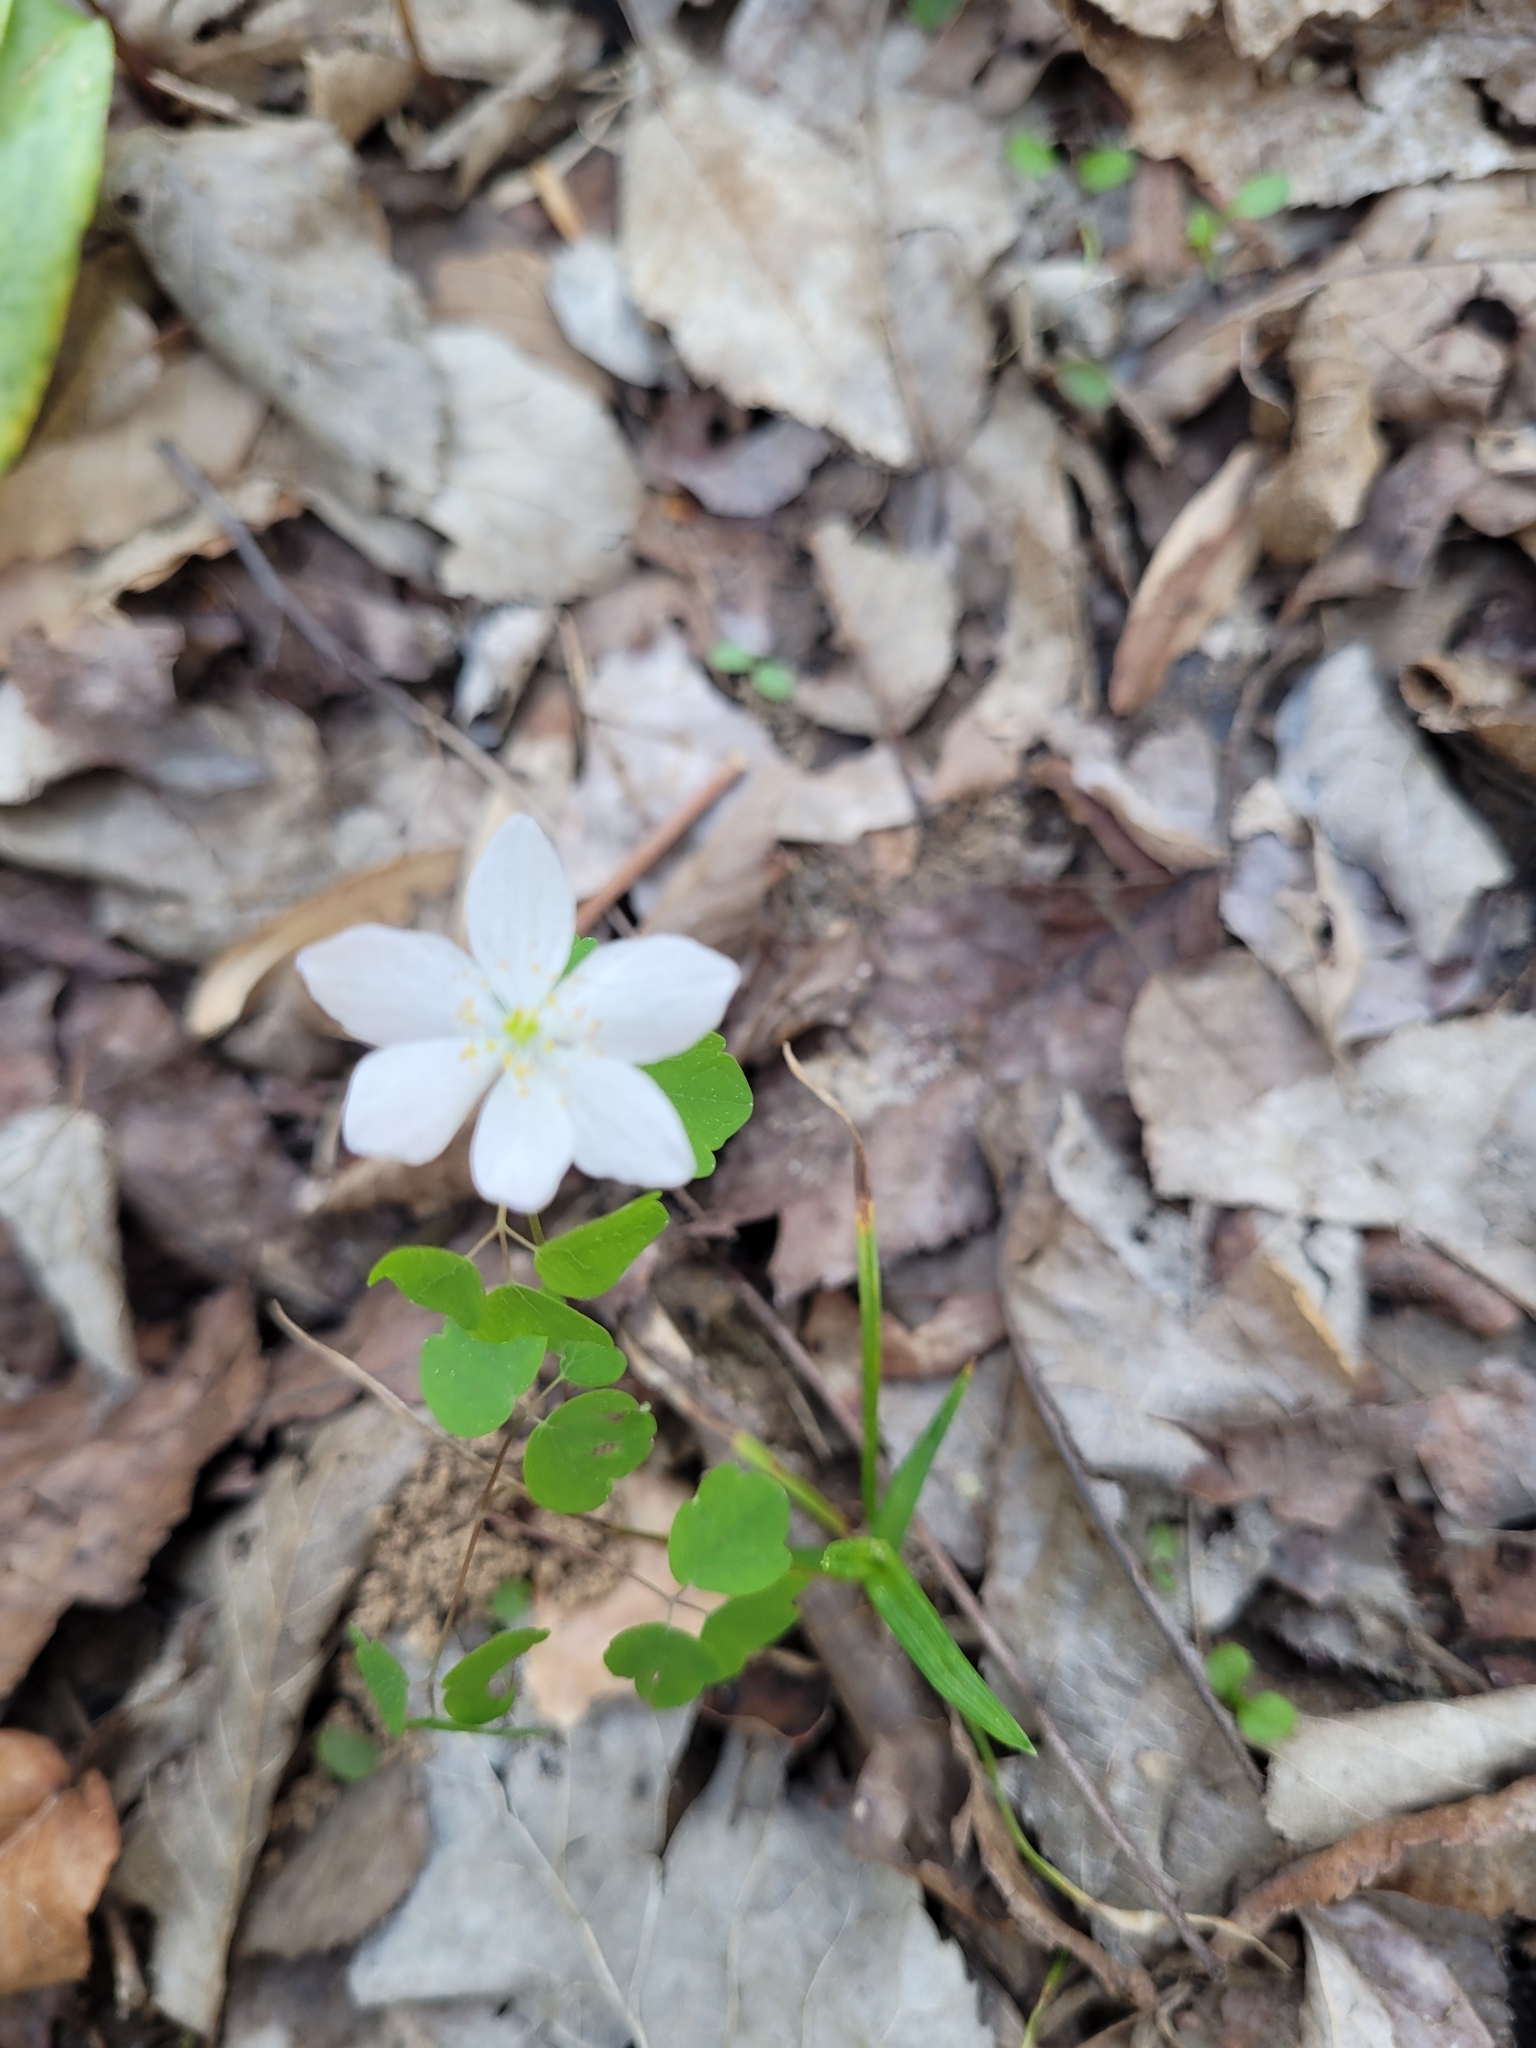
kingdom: Plantae
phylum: Tracheophyta
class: Magnoliopsida
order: Ranunculales
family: Ranunculaceae
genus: Thalictrum
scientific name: Thalictrum thalictroides
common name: Rue-anemone
